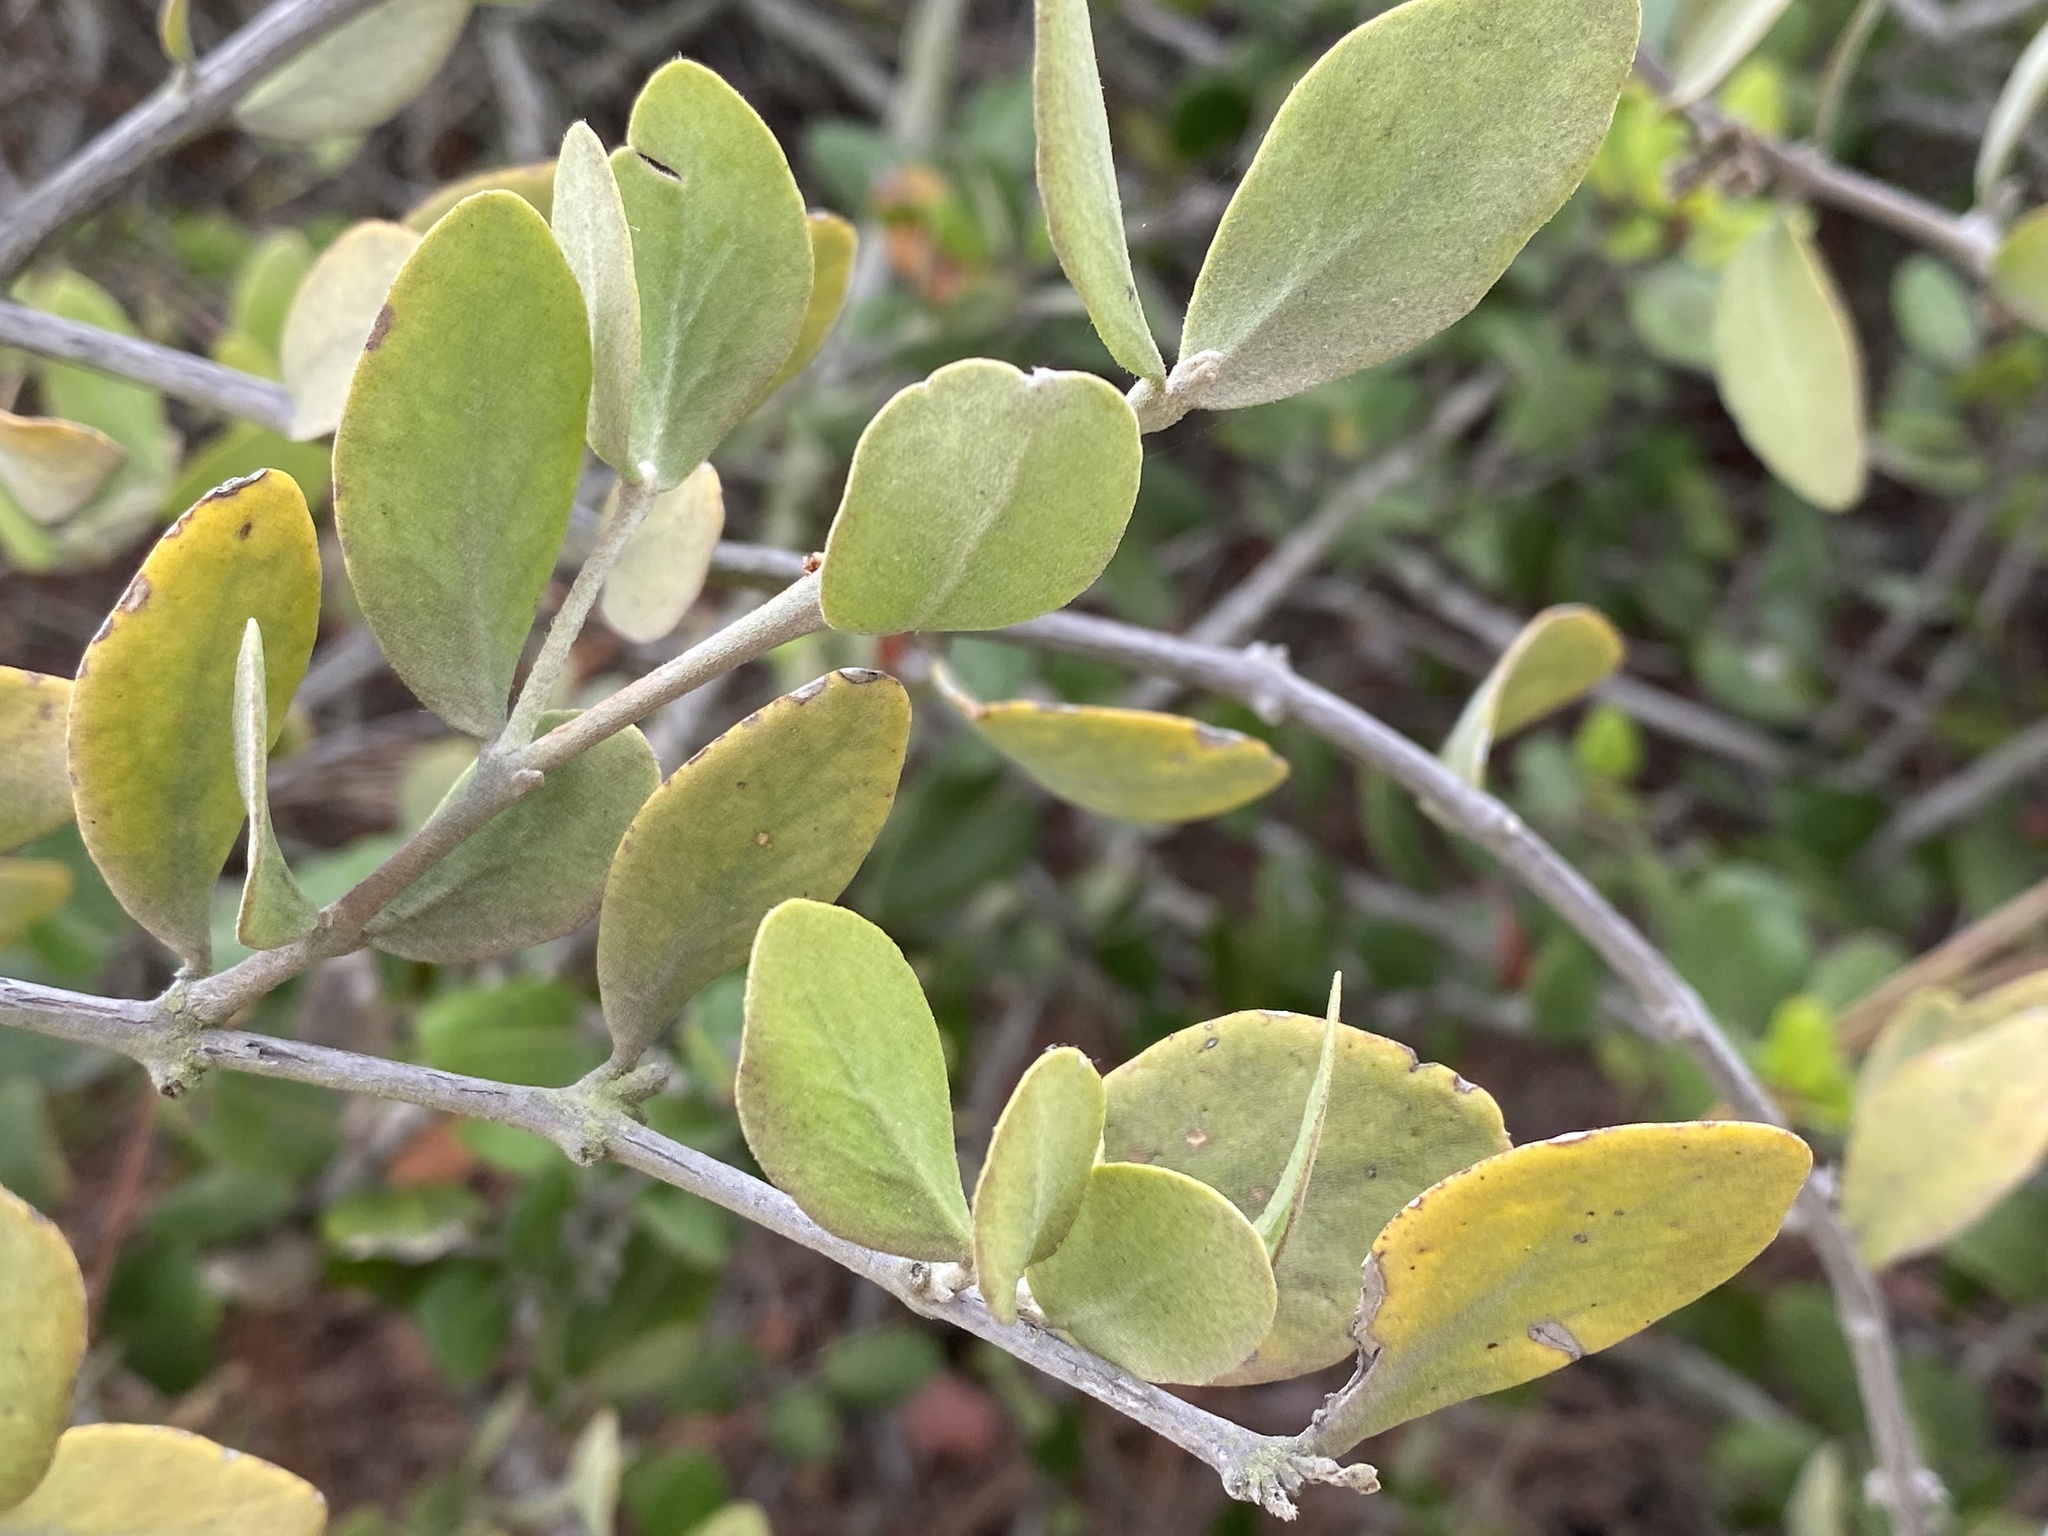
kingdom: Plantae
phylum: Tracheophyta
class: Magnoliopsida
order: Caryophyllales
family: Simmondsiaceae
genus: Simmondsia
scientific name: Simmondsia chinensis
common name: Jojoba
